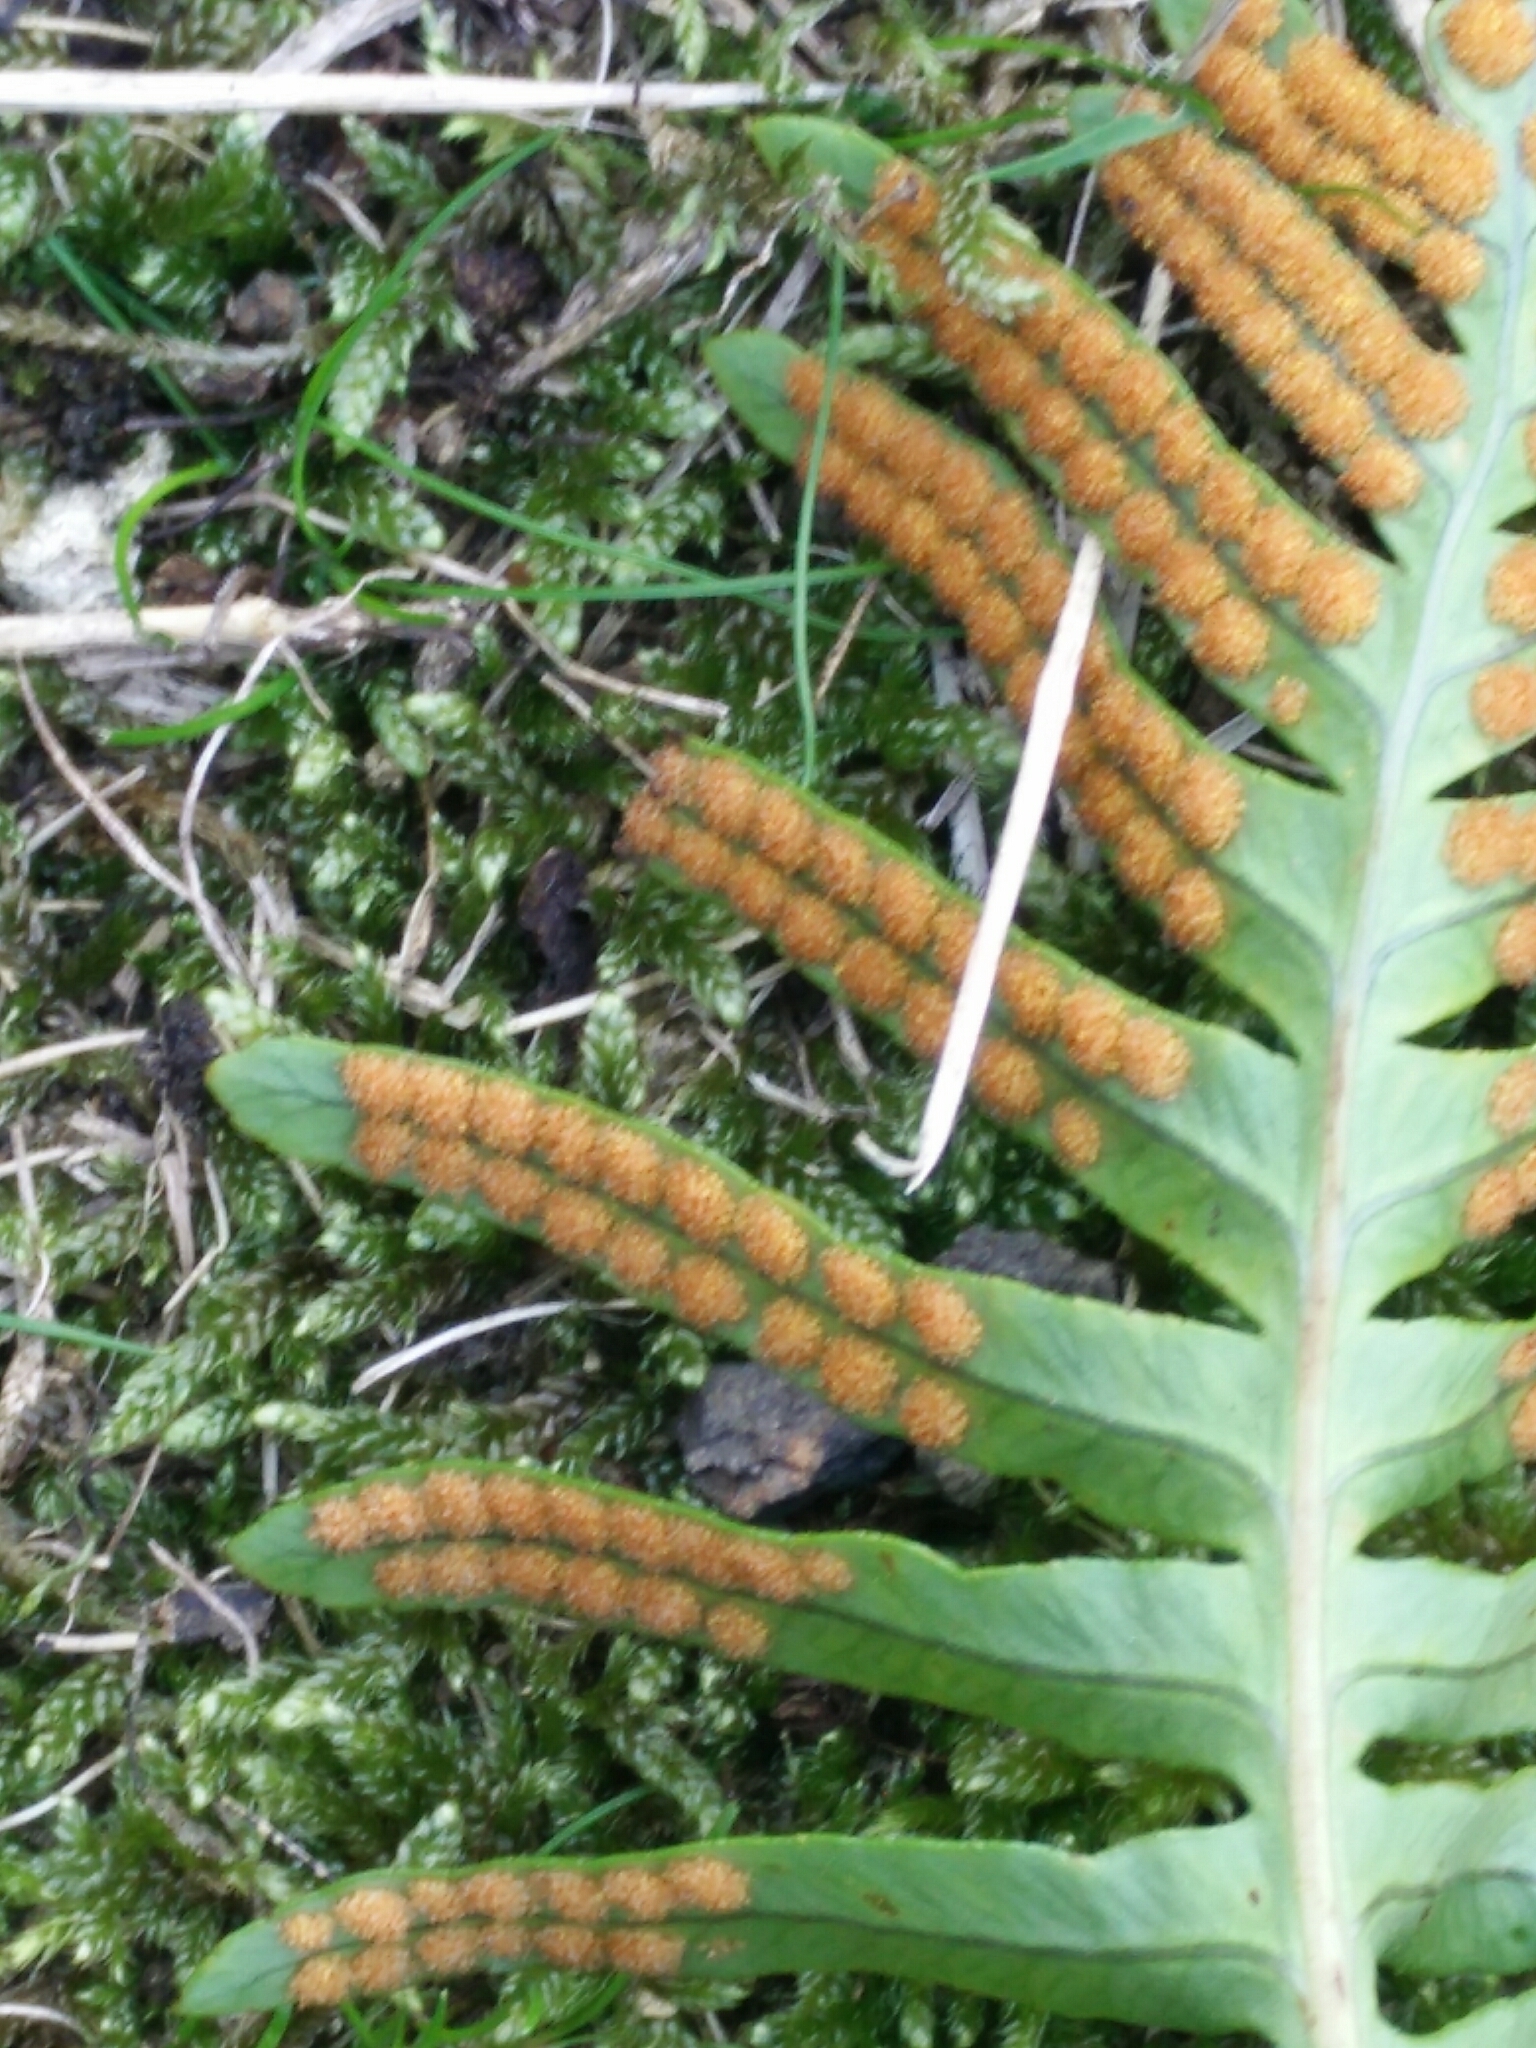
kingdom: Plantae
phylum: Tracheophyta
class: Polypodiopsida
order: Polypodiales
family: Polypodiaceae
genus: Polypodium
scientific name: Polypodium interjectum
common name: Intermediate polypody
